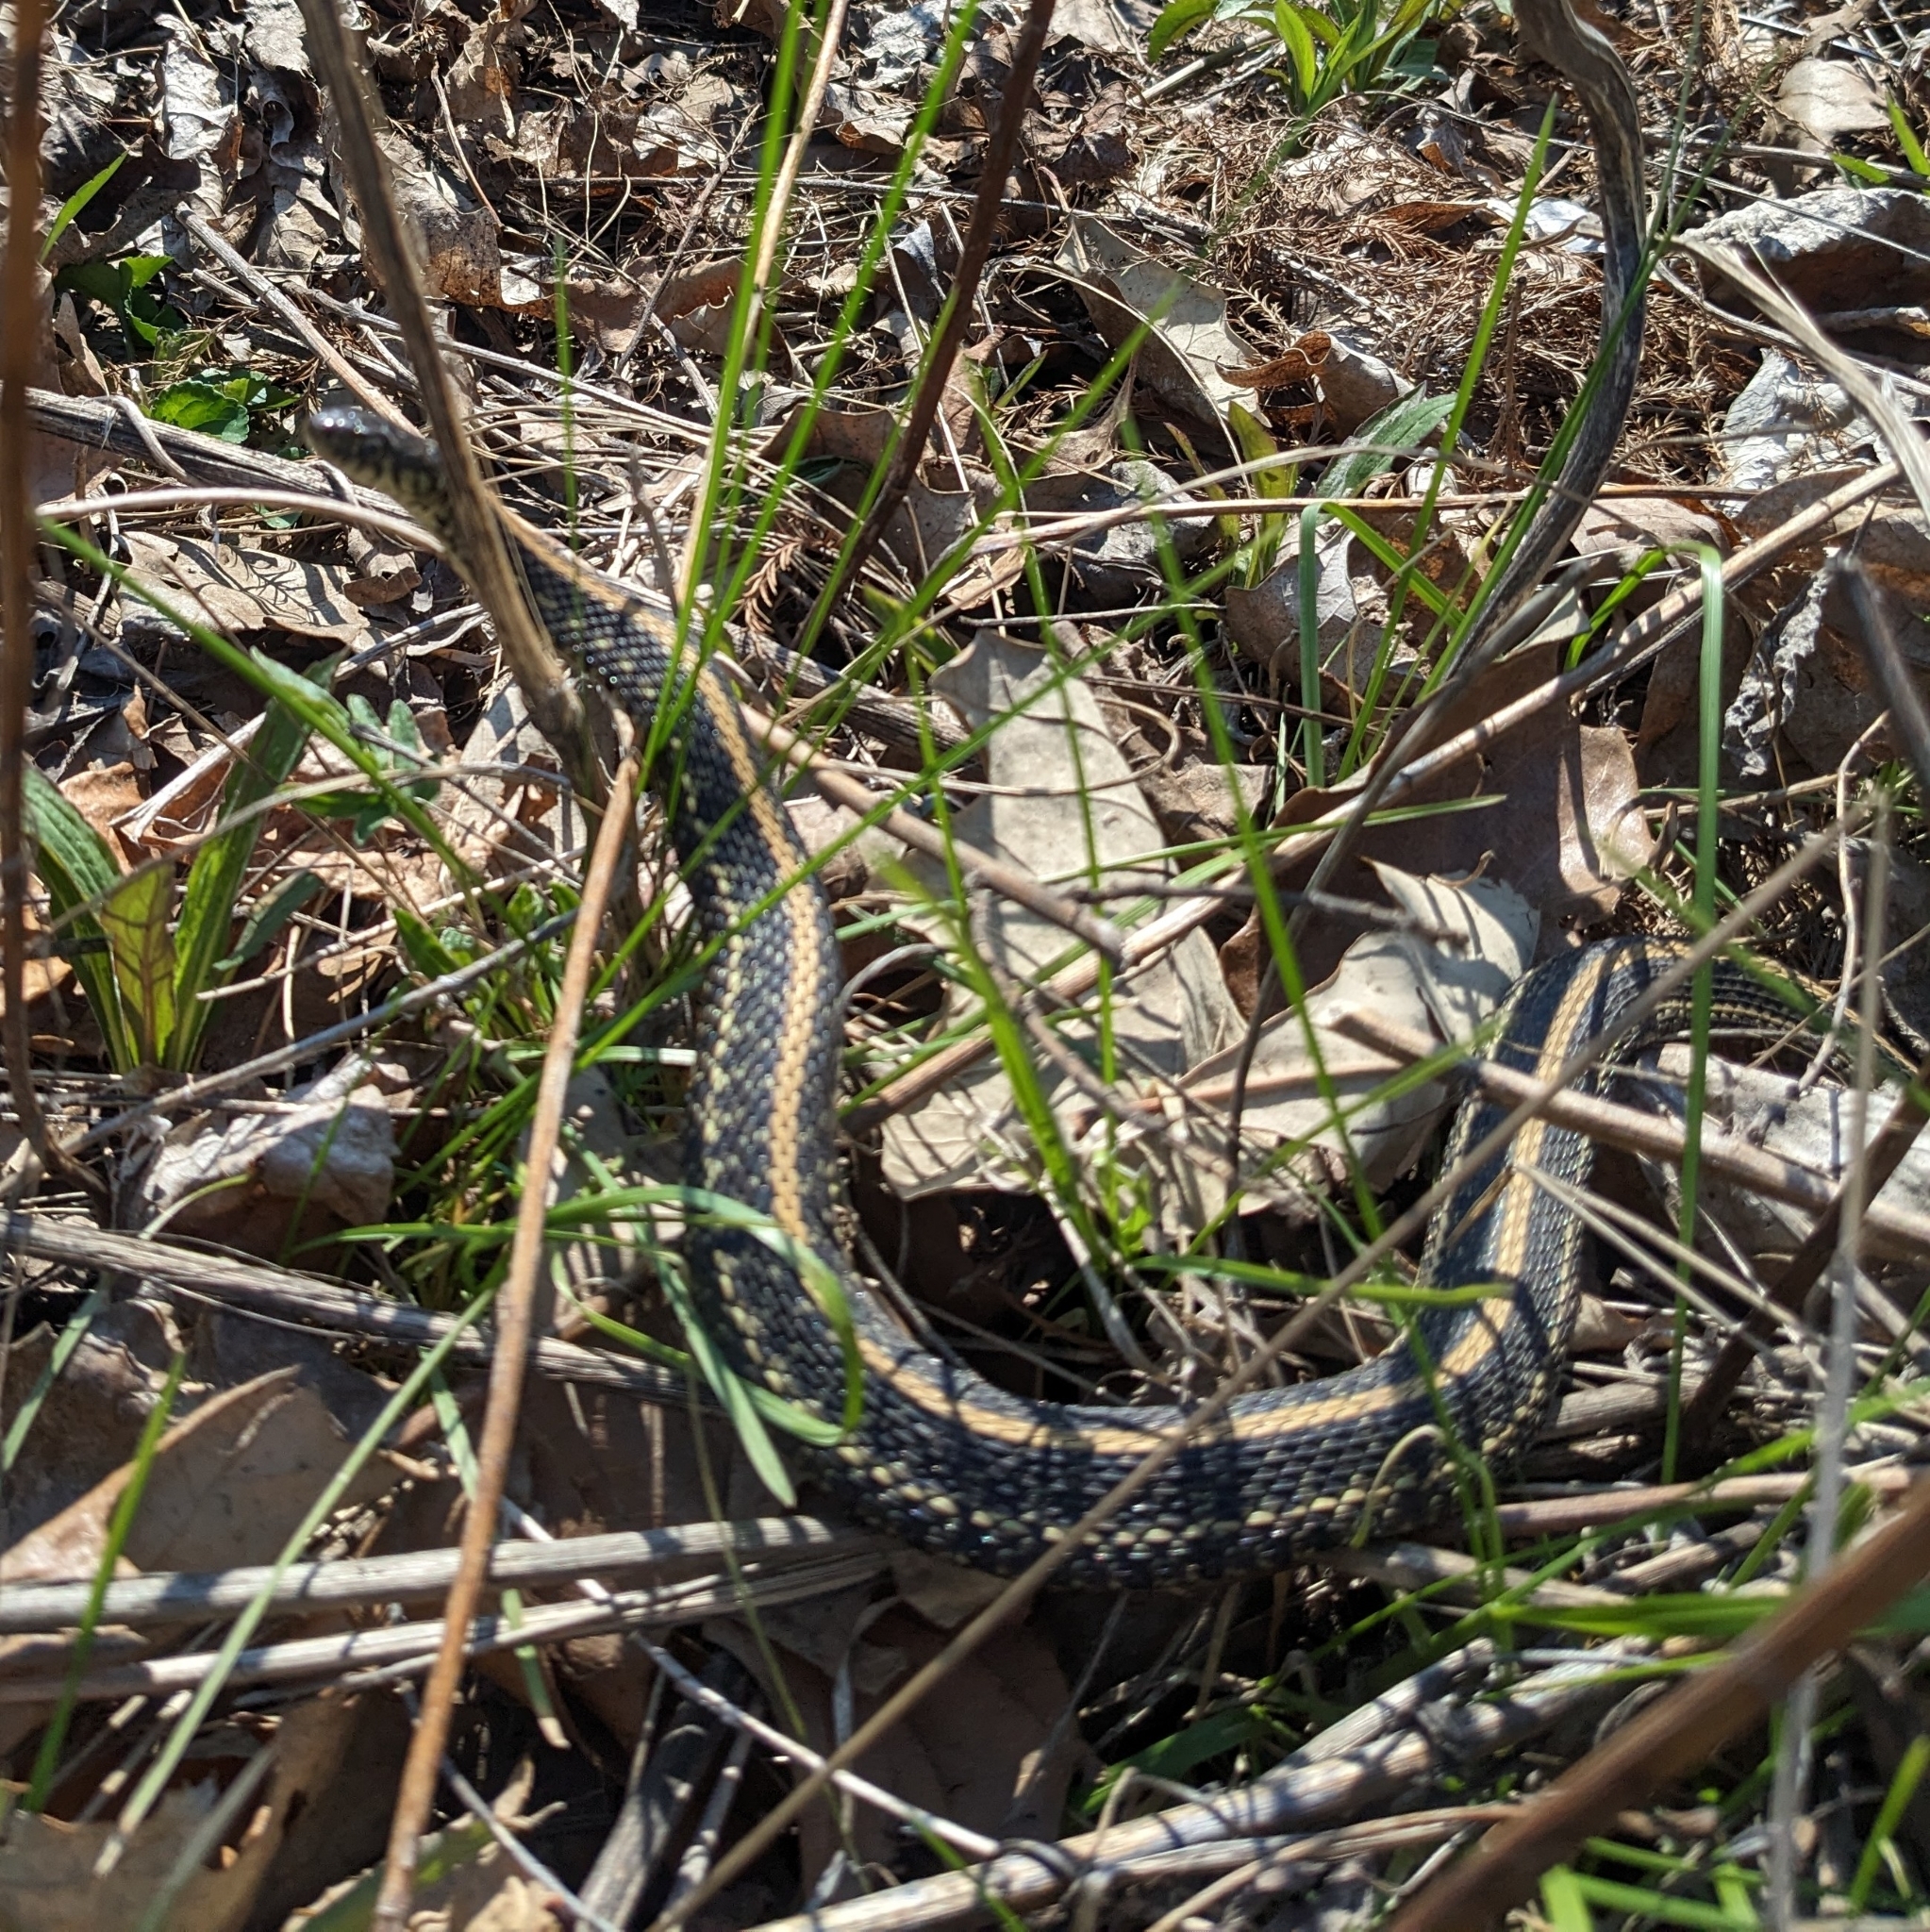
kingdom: Animalia
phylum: Chordata
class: Squamata
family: Colubridae
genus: Thamnophis
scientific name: Thamnophis radix
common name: Plains garter snake
